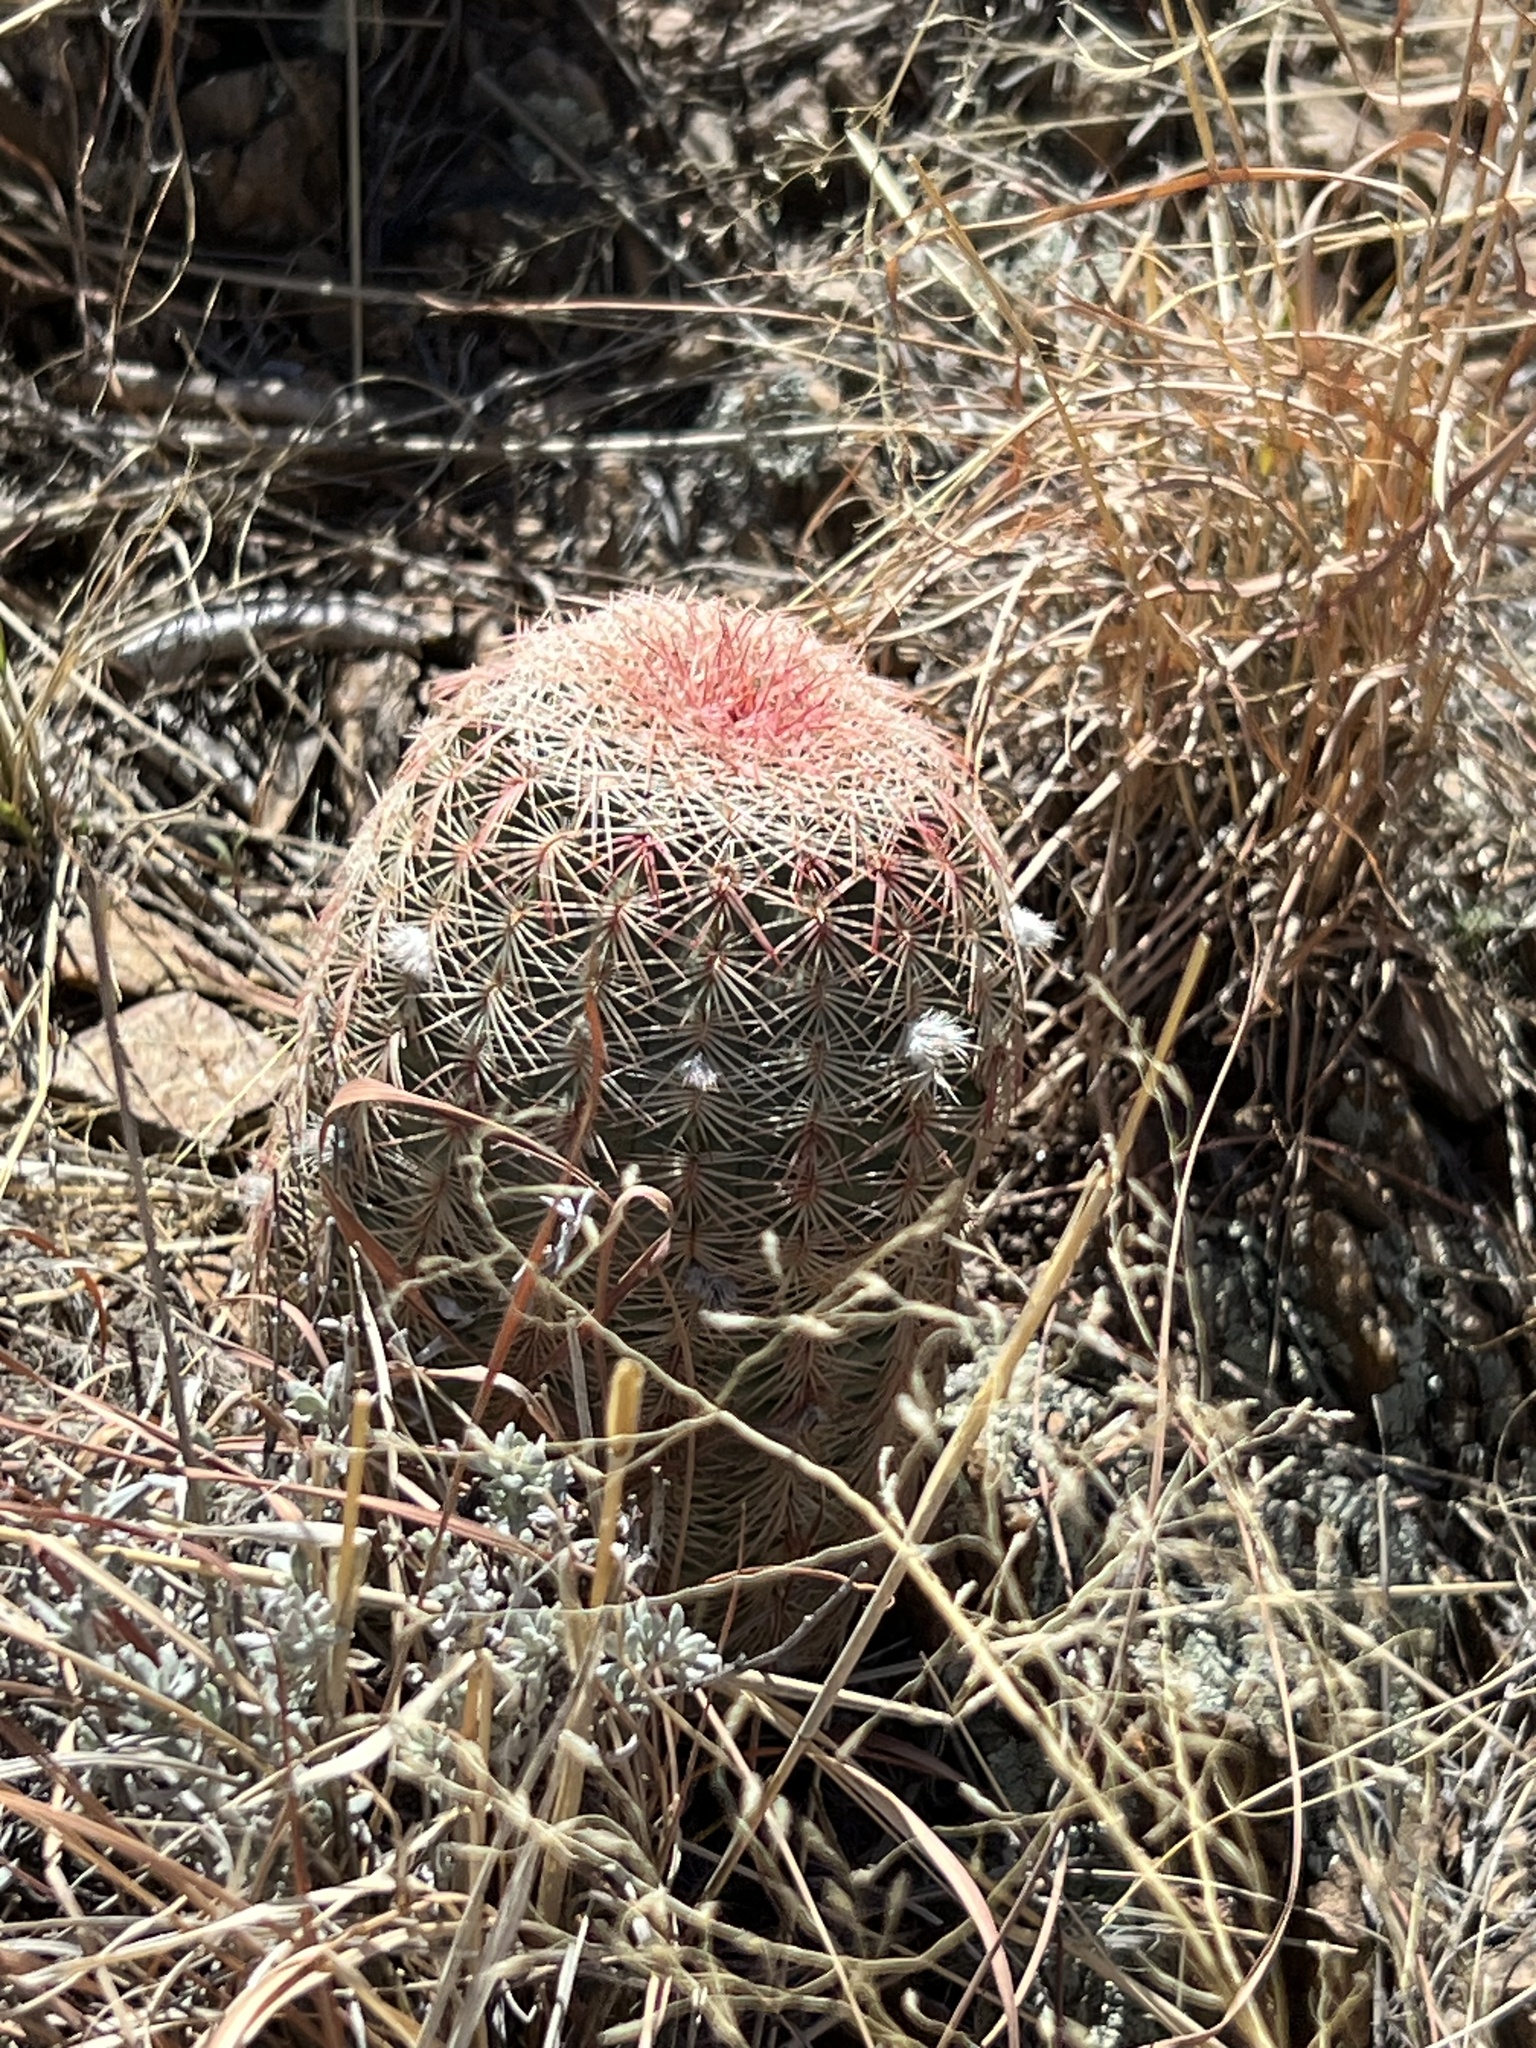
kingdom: Plantae
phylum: Tracheophyta
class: Magnoliopsida
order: Caryophyllales
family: Cactaceae
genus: Echinocereus
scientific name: Echinocereus rigidissimus
